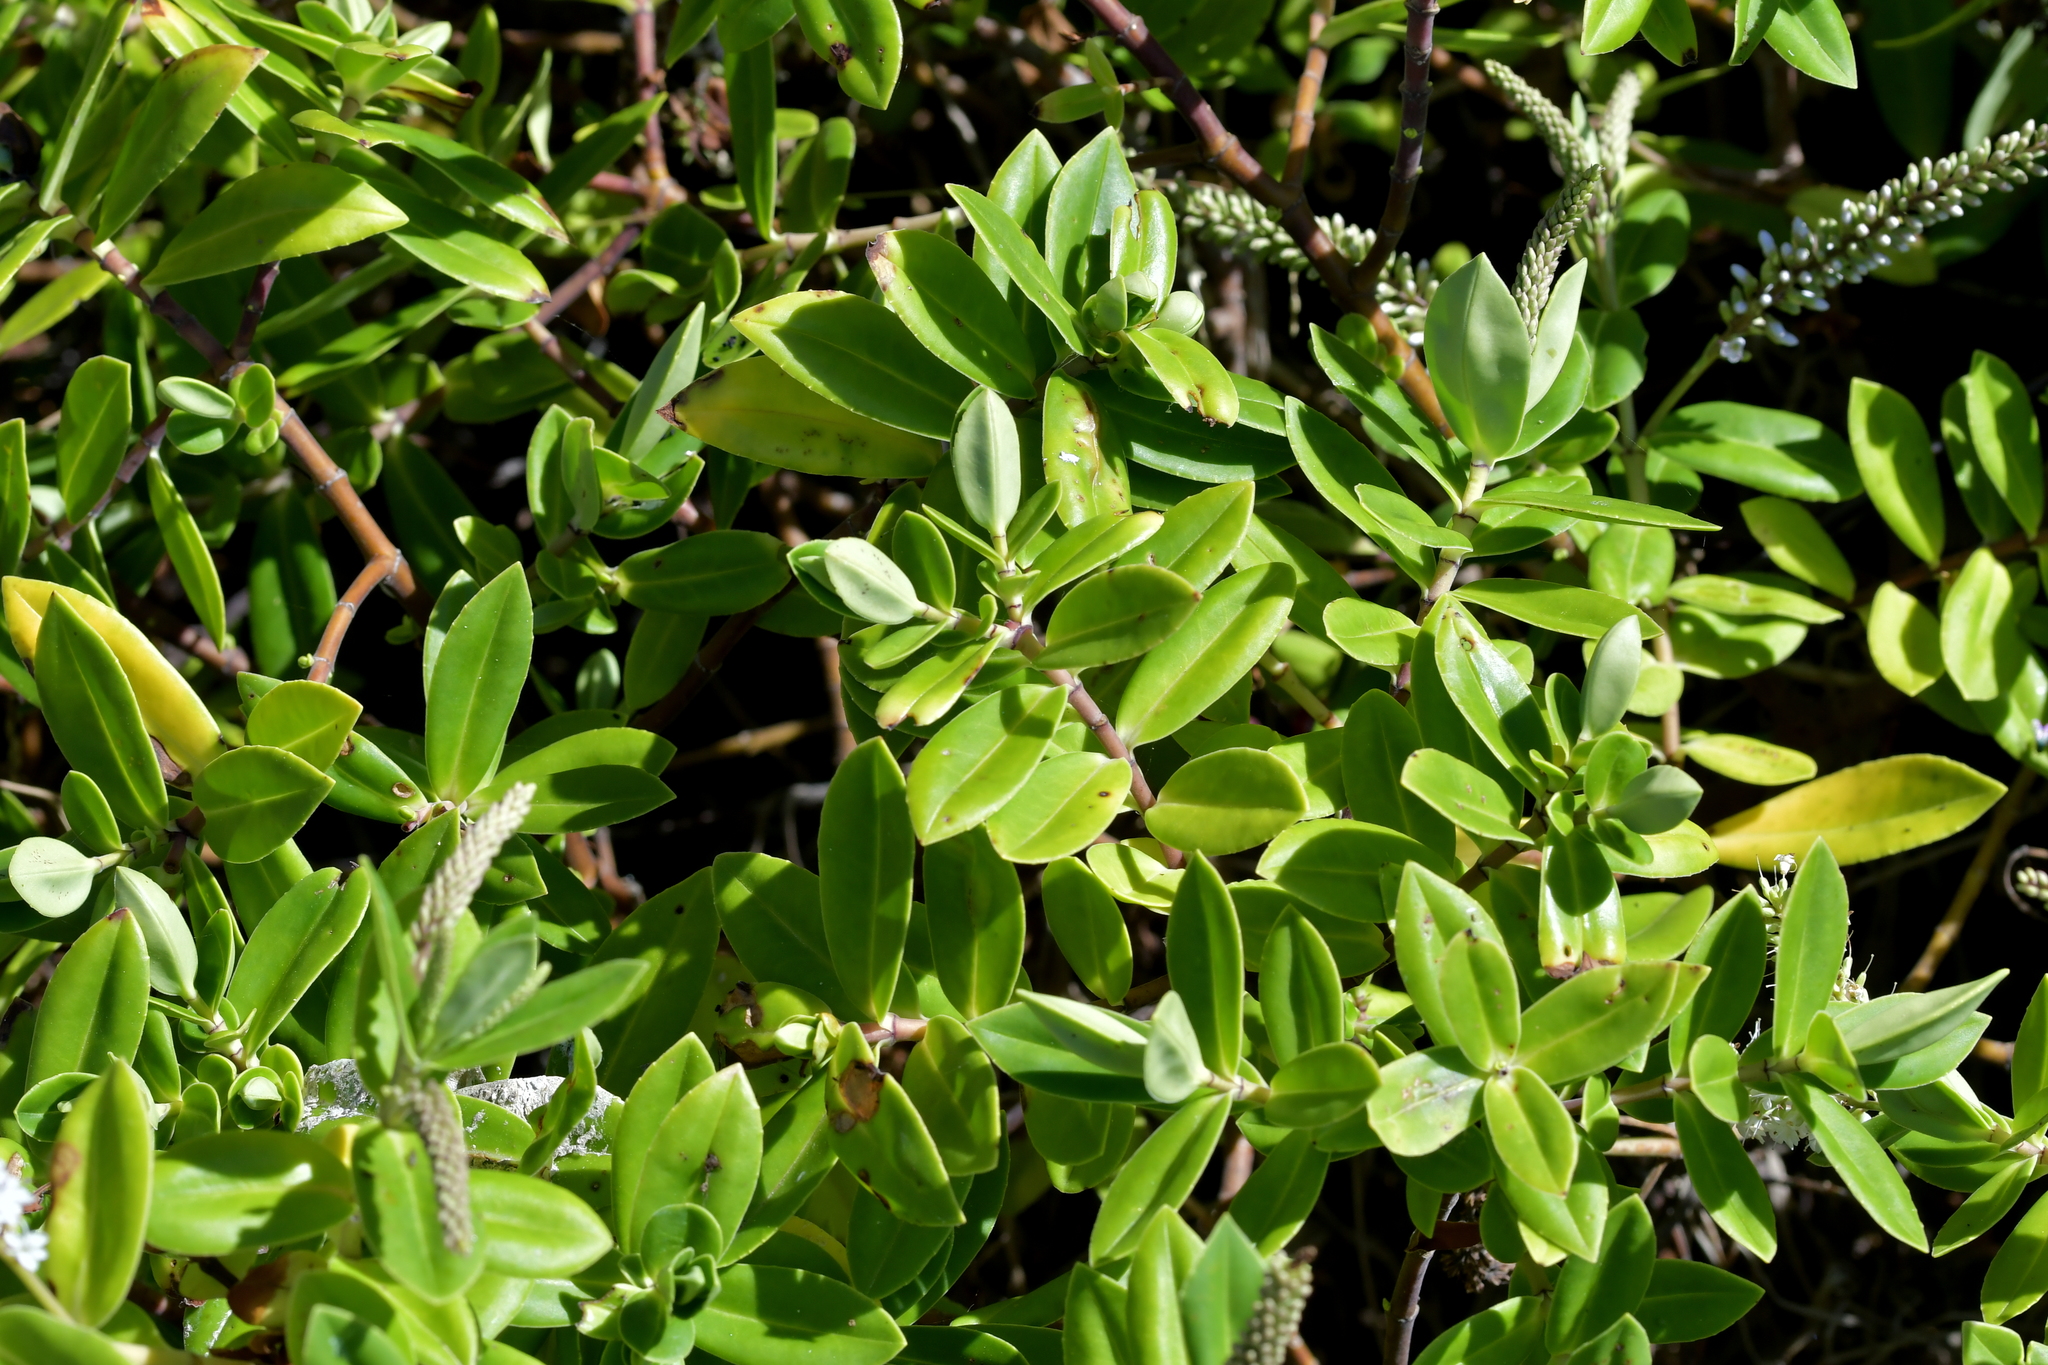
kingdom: Plantae
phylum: Tracheophyta
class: Magnoliopsida
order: Lamiales
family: Plantaginaceae
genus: Veronica
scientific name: Veronica stricta
